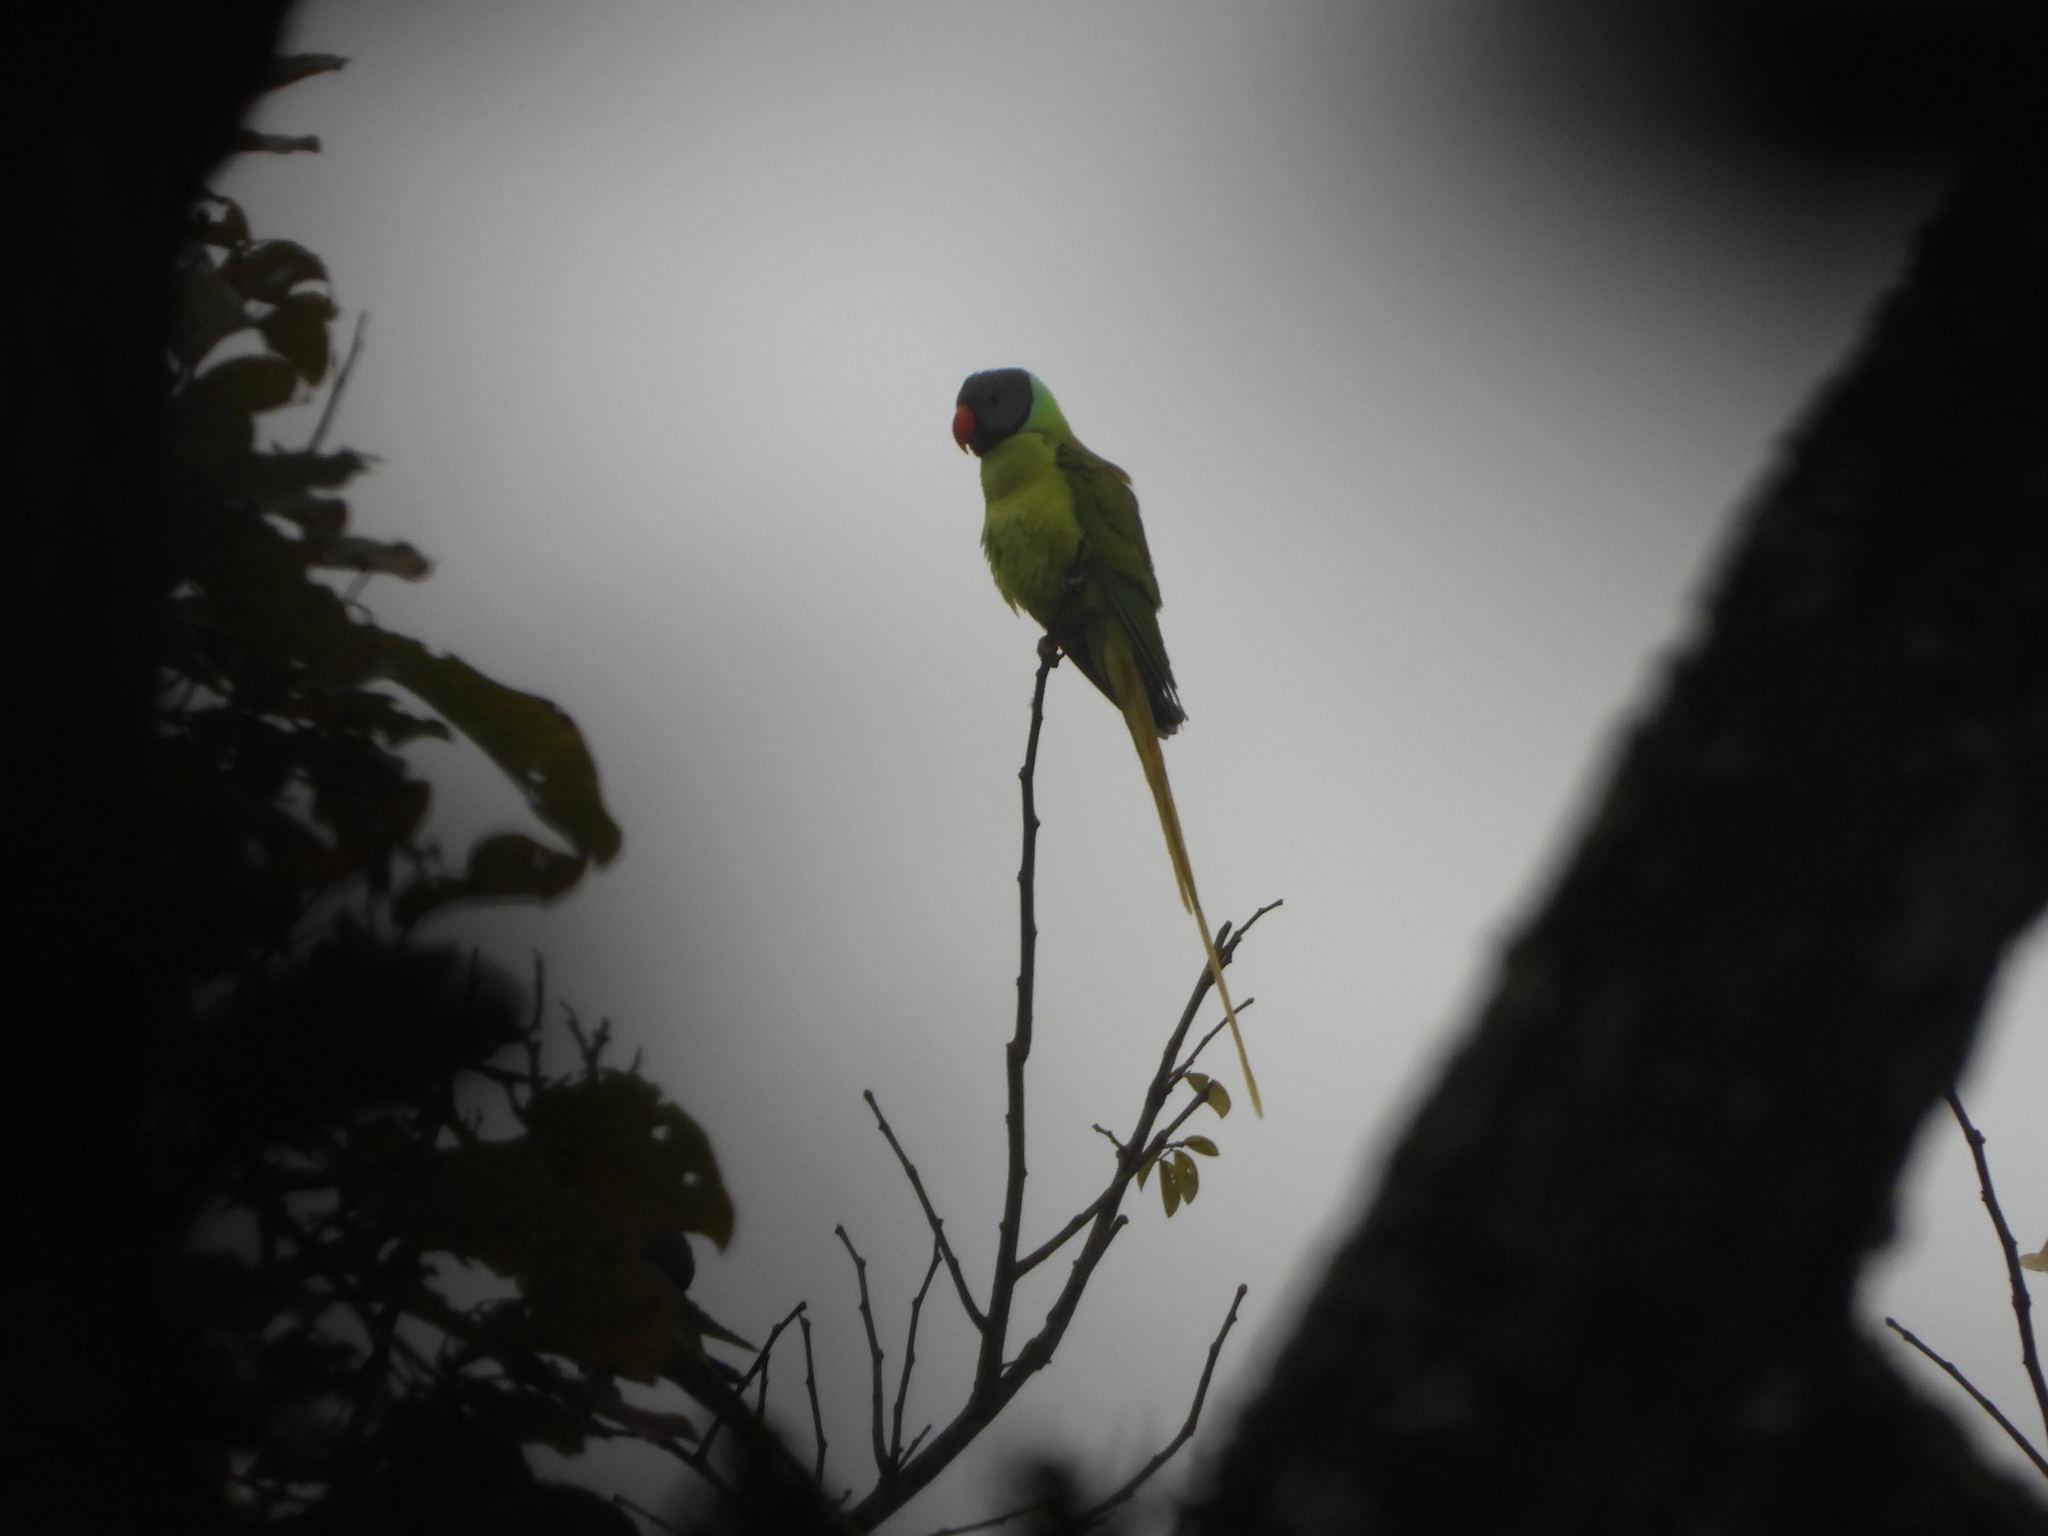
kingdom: Animalia
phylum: Chordata
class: Aves
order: Psittaciformes
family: Psittacidae
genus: Psittacula
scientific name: Psittacula finschii
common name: Grey-headed parakeet
